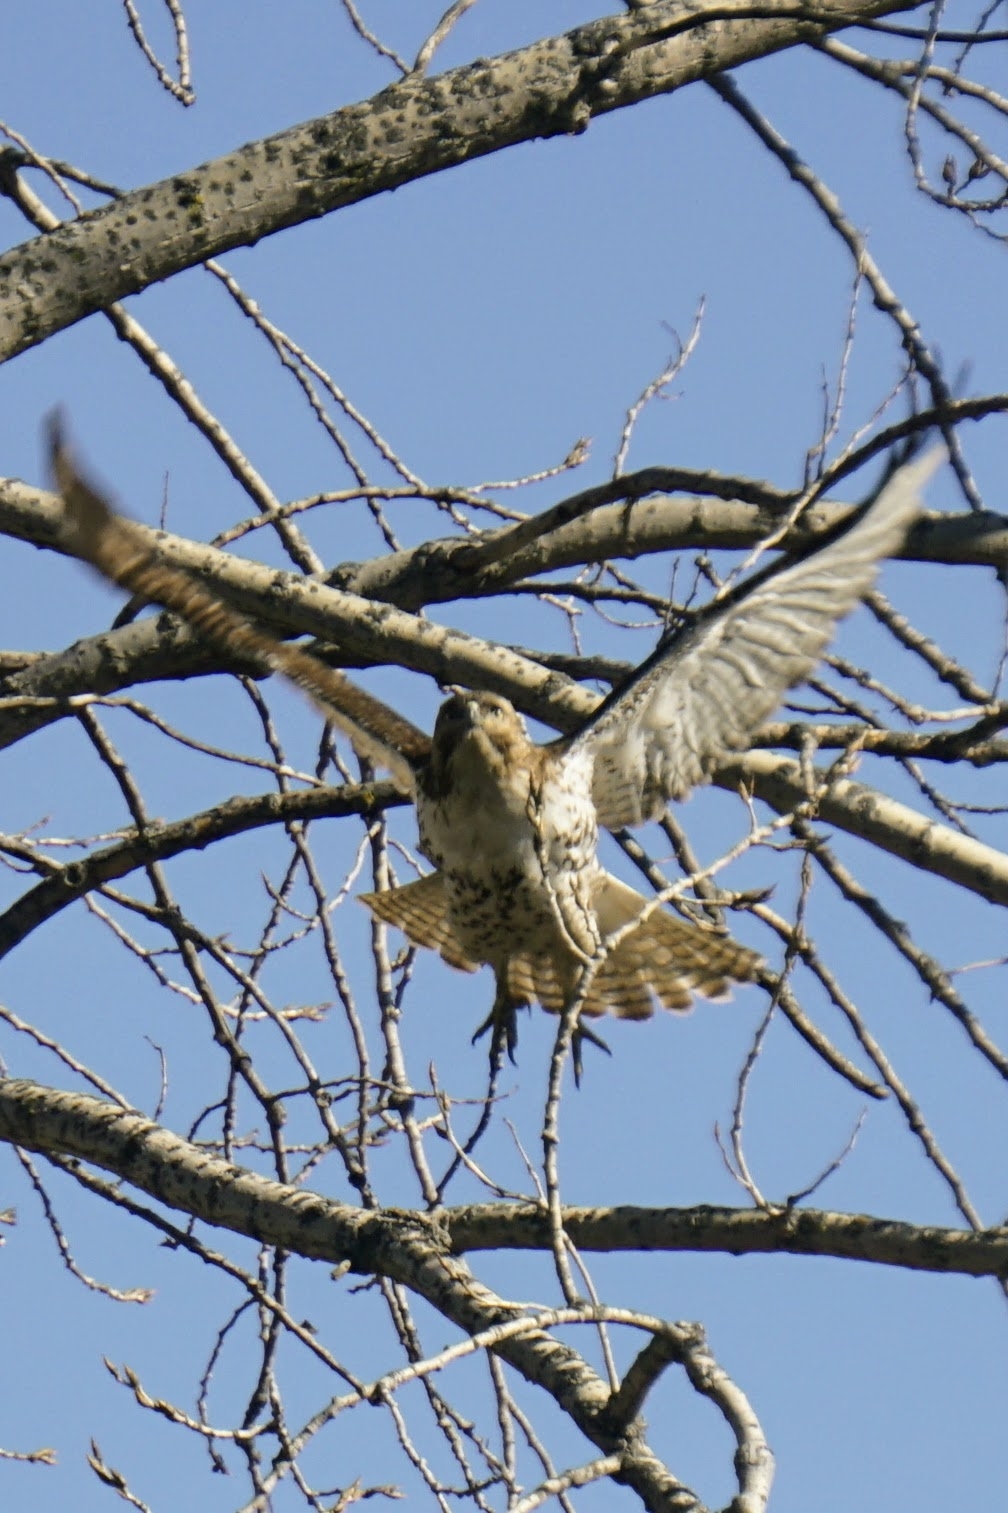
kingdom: Animalia
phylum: Chordata
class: Aves
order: Accipitriformes
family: Accipitridae
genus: Buteo
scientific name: Buteo jamaicensis
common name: Red-tailed hawk
